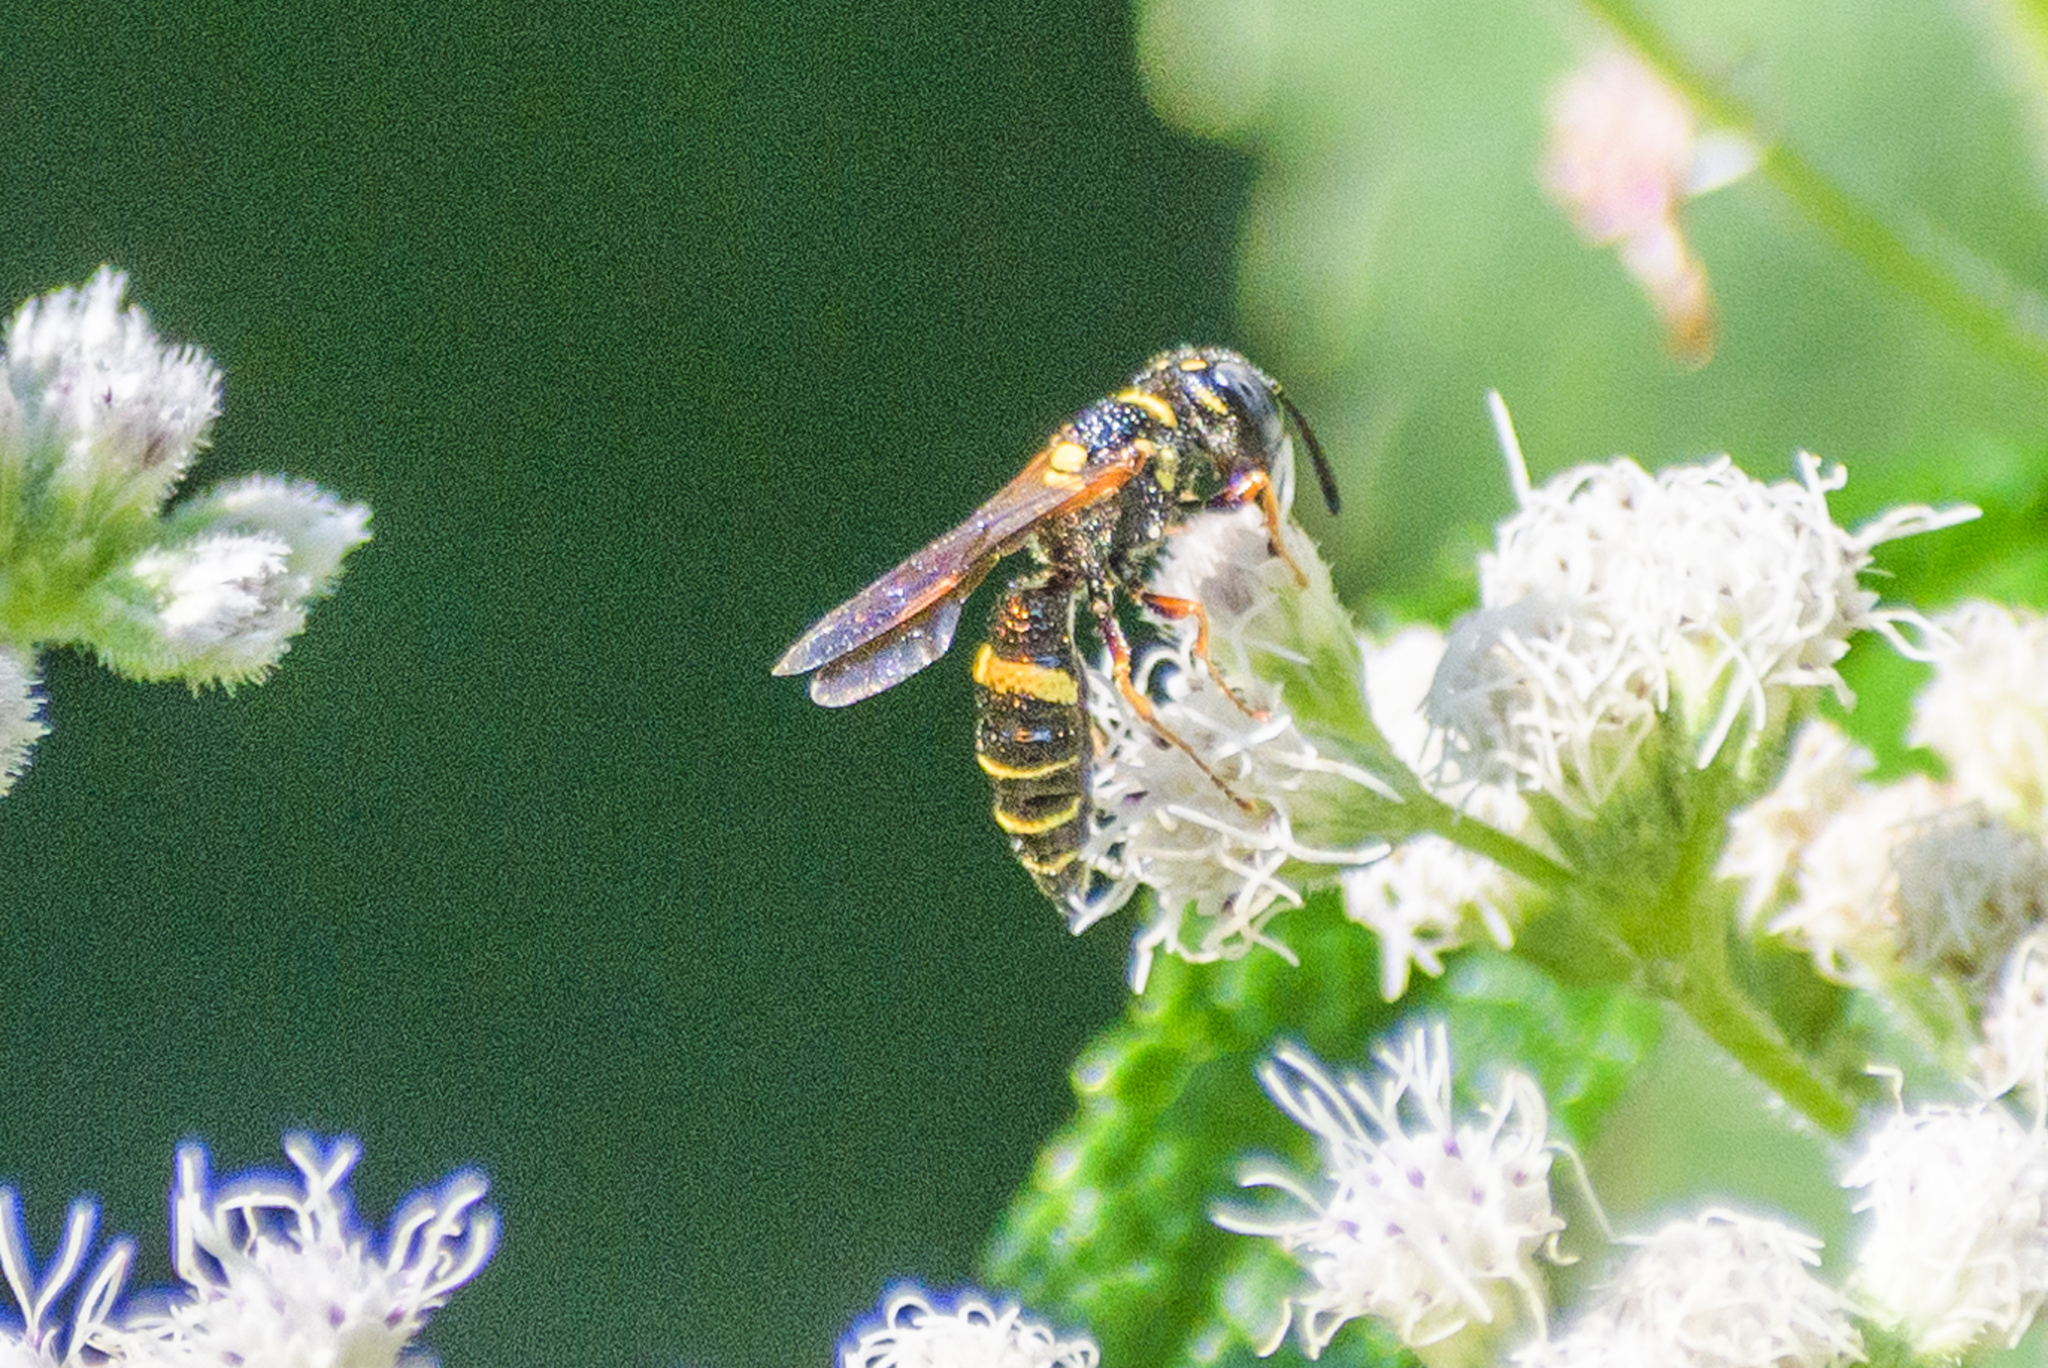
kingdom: Animalia
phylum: Arthropoda
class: Insecta
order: Hymenoptera
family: Crabronidae
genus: Philanthus
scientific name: Philanthus gibbosus
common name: Humped beewolf
